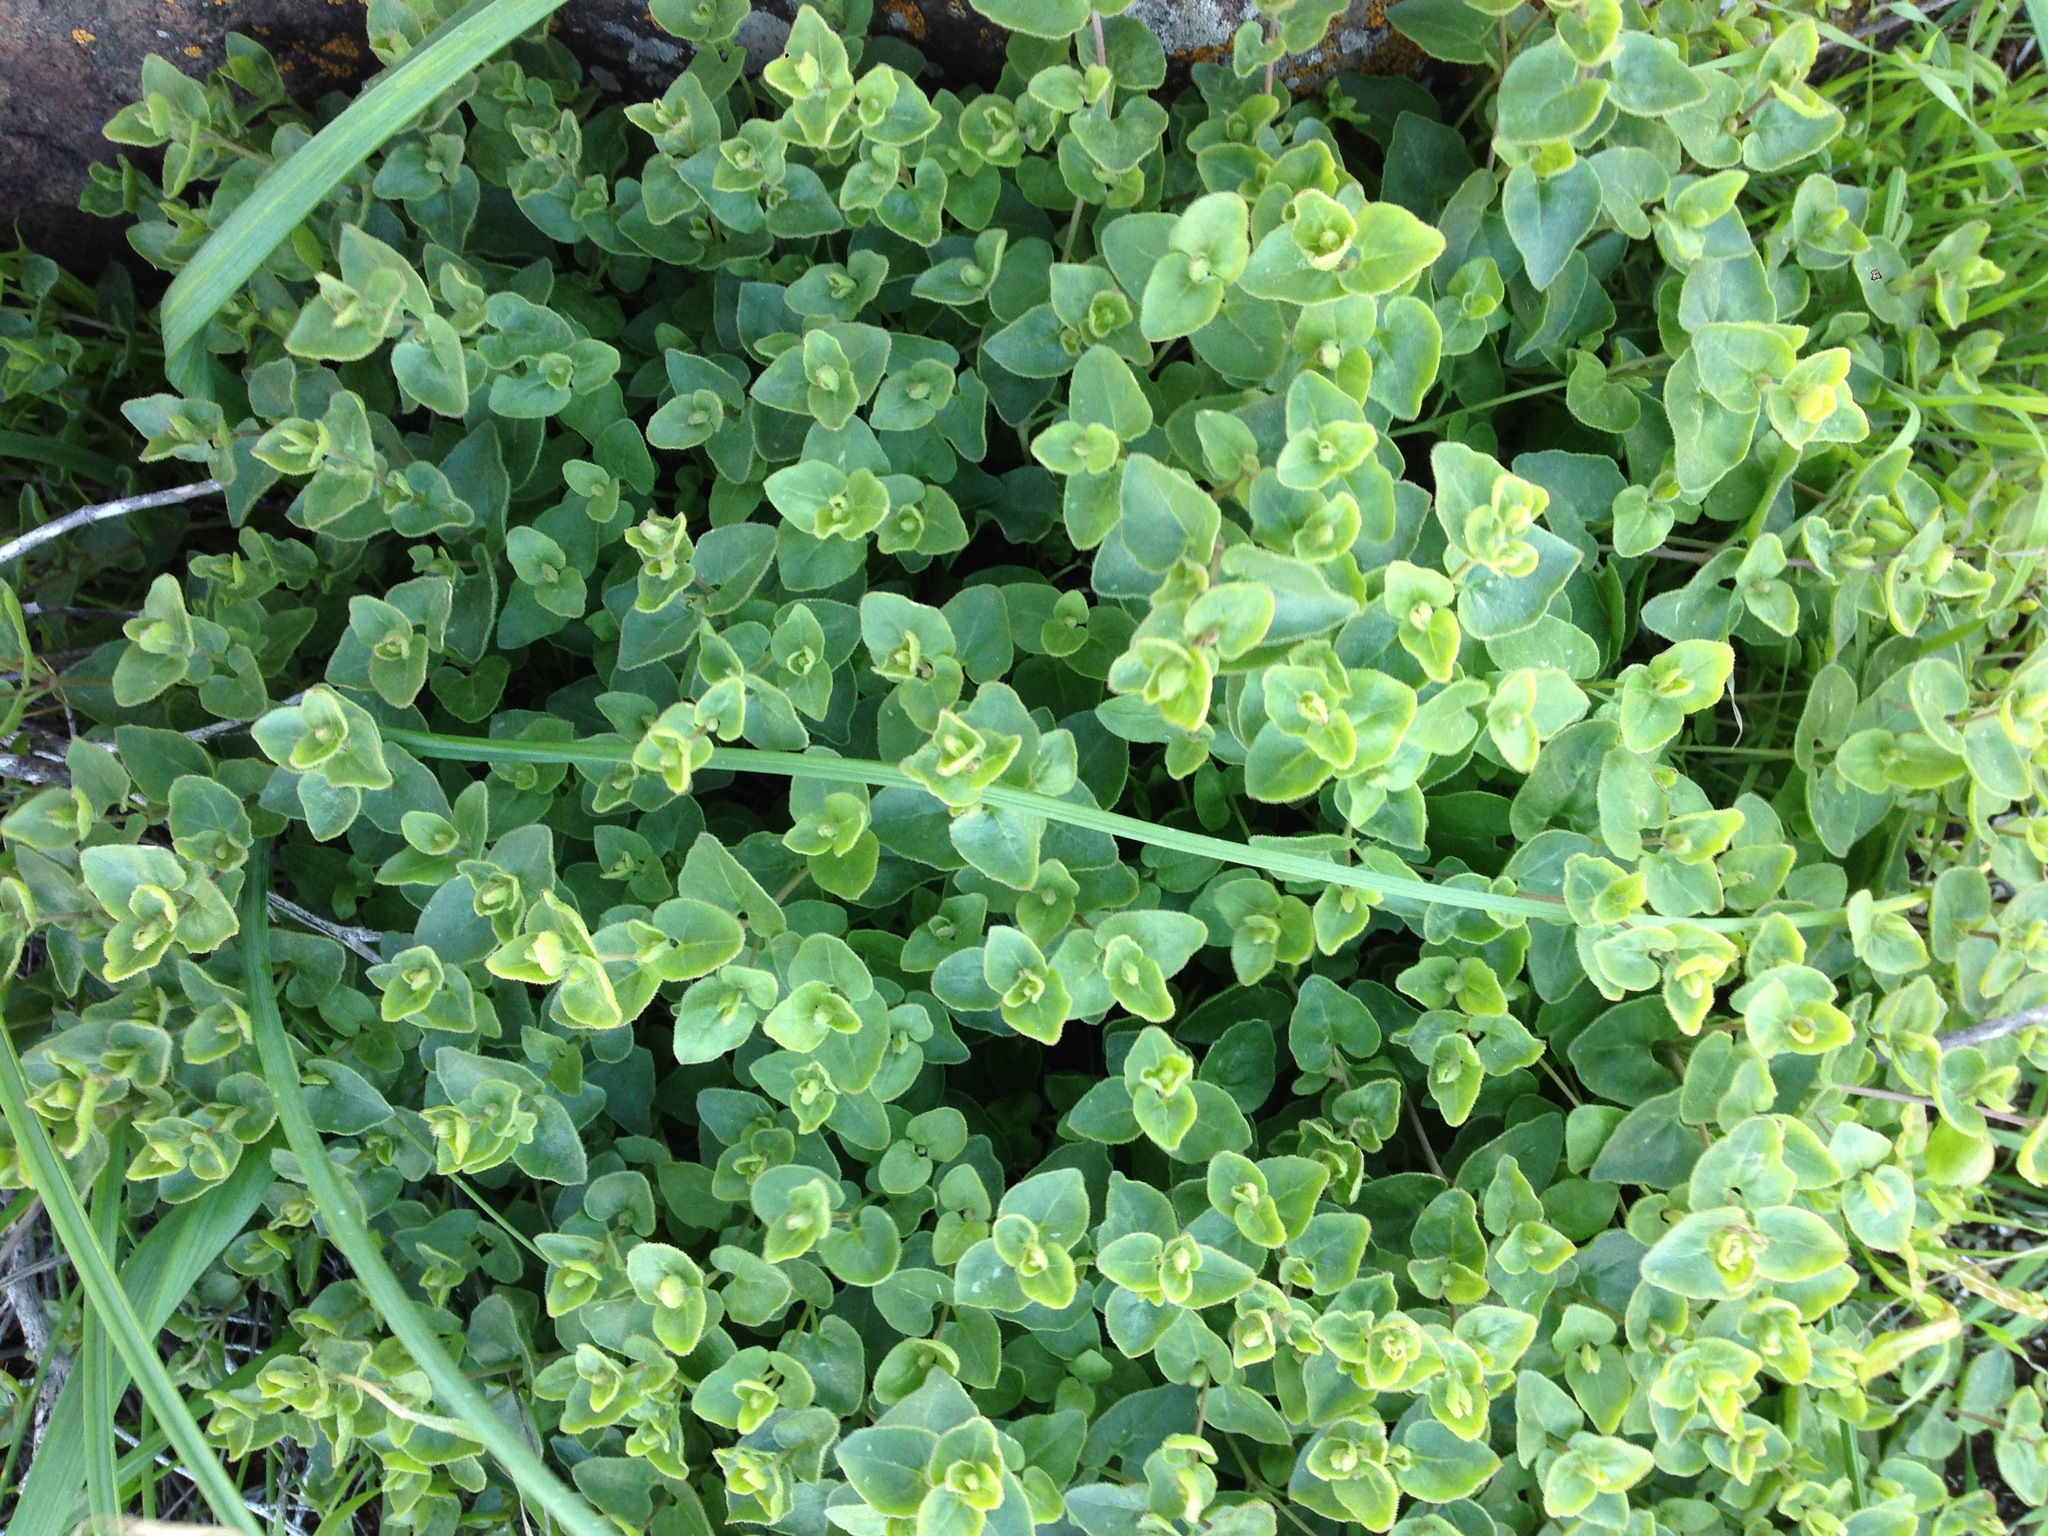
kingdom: Plantae
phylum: Tracheophyta
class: Magnoliopsida
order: Caryophyllales
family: Nyctaginaceae
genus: Mirabilis
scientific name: Mirabilis laevis
